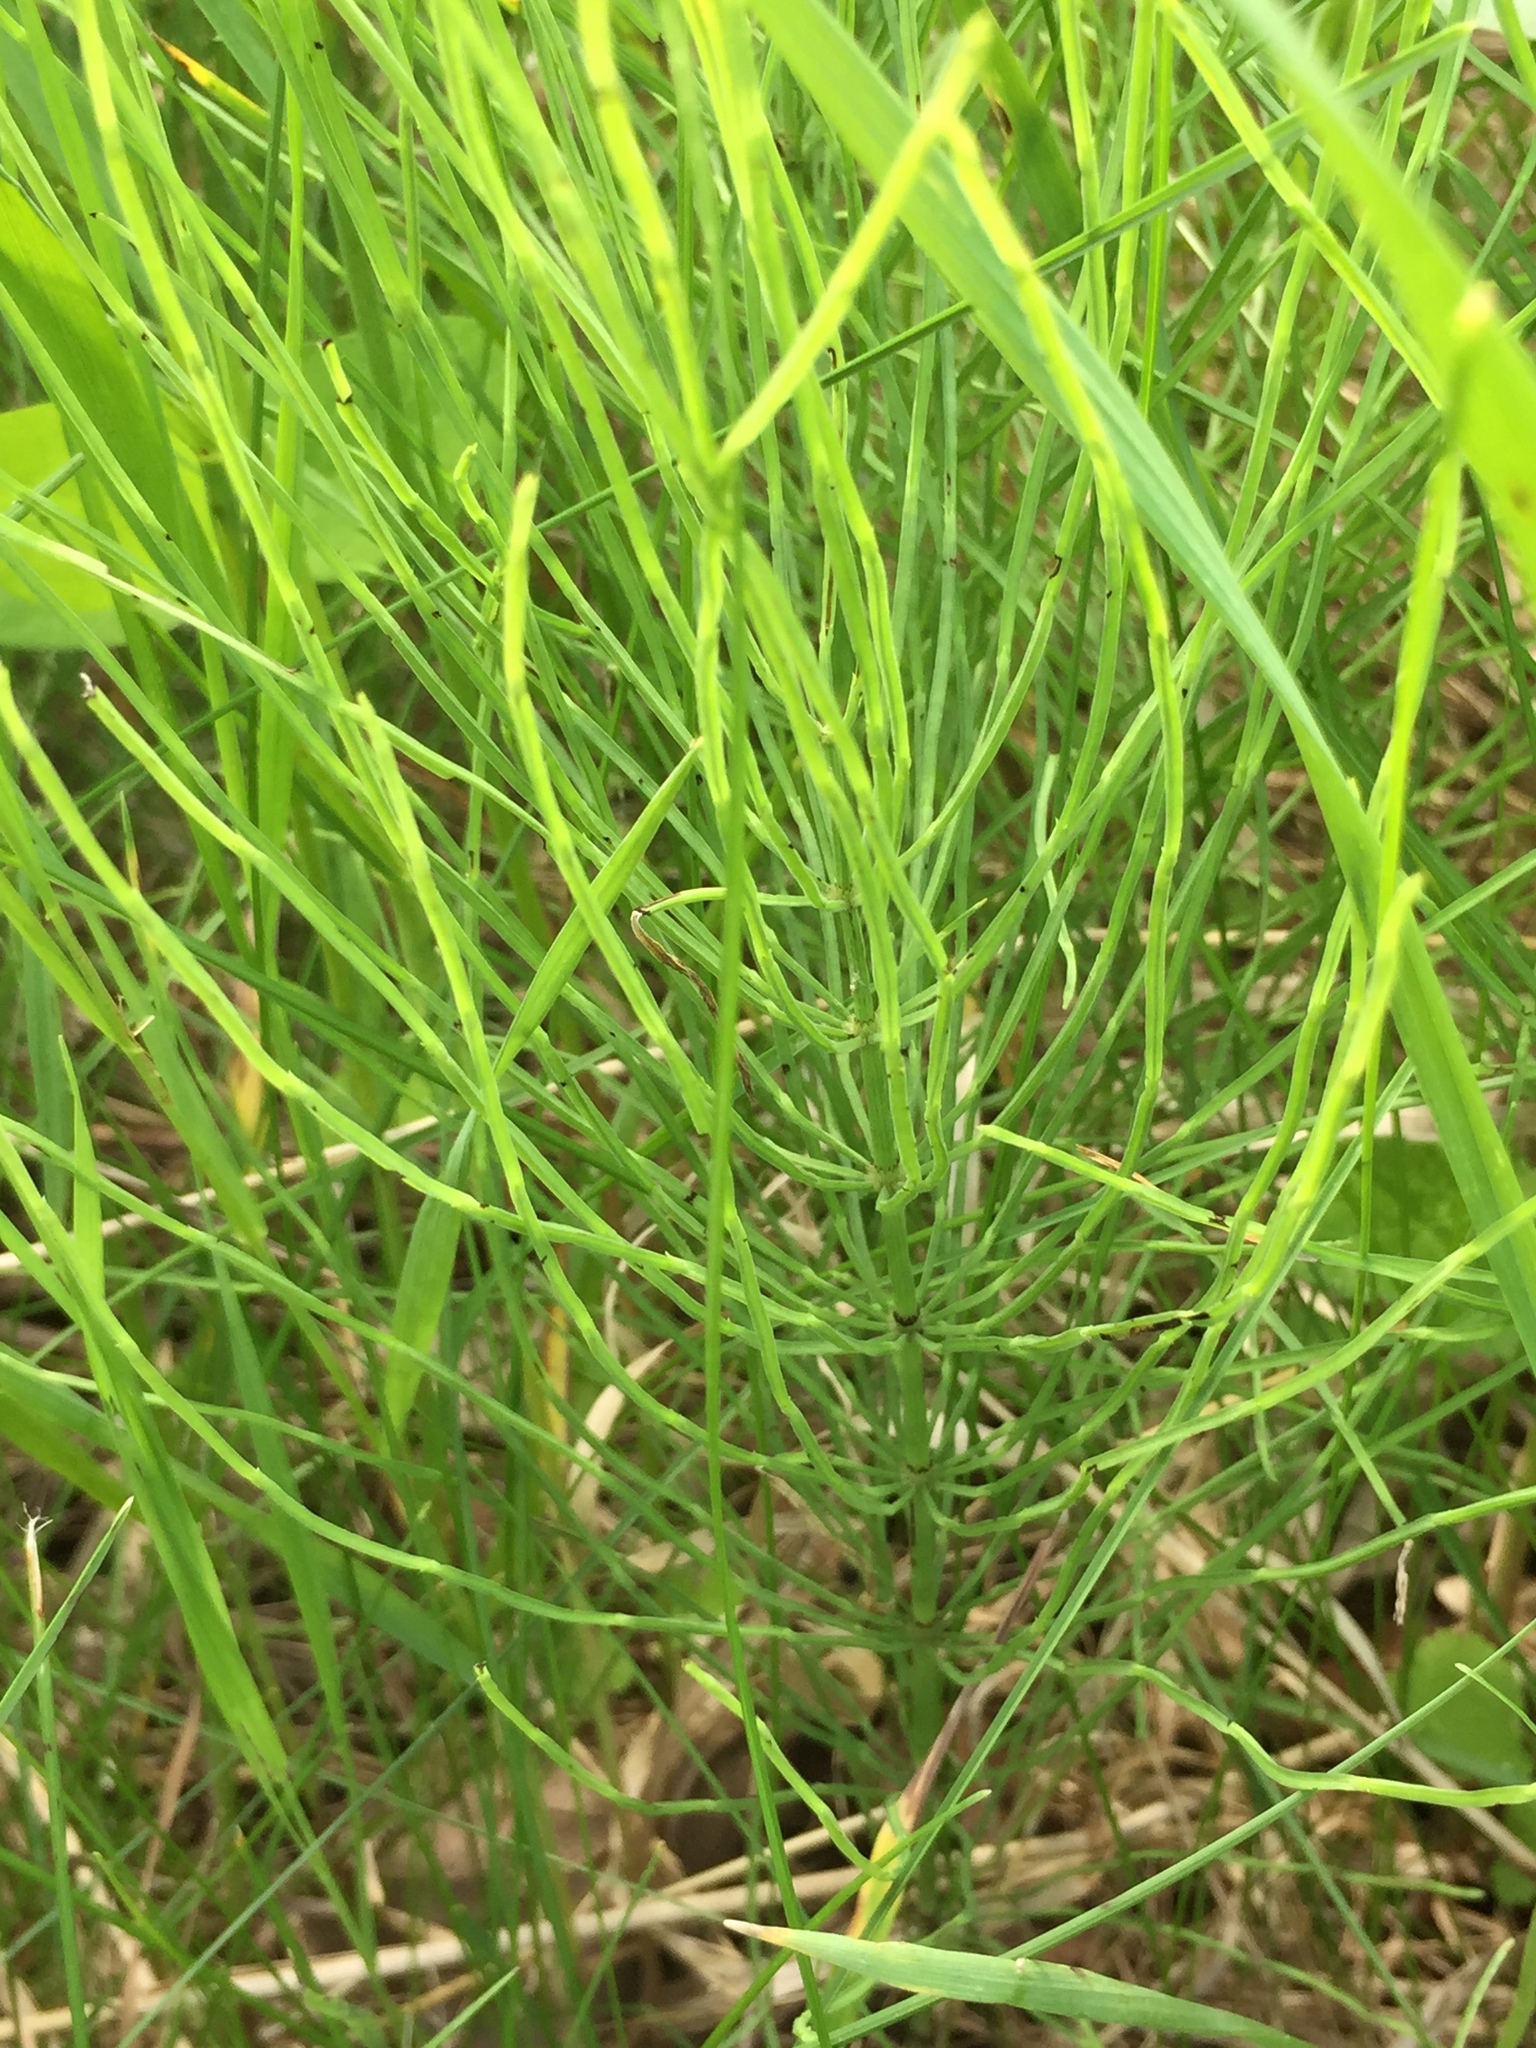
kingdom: Plantae
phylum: Tracheophyta
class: Polypodiopsida
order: Equisetales
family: Equisetaceae
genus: Equisetum
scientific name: Equisetum arvense
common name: Field horsetail
